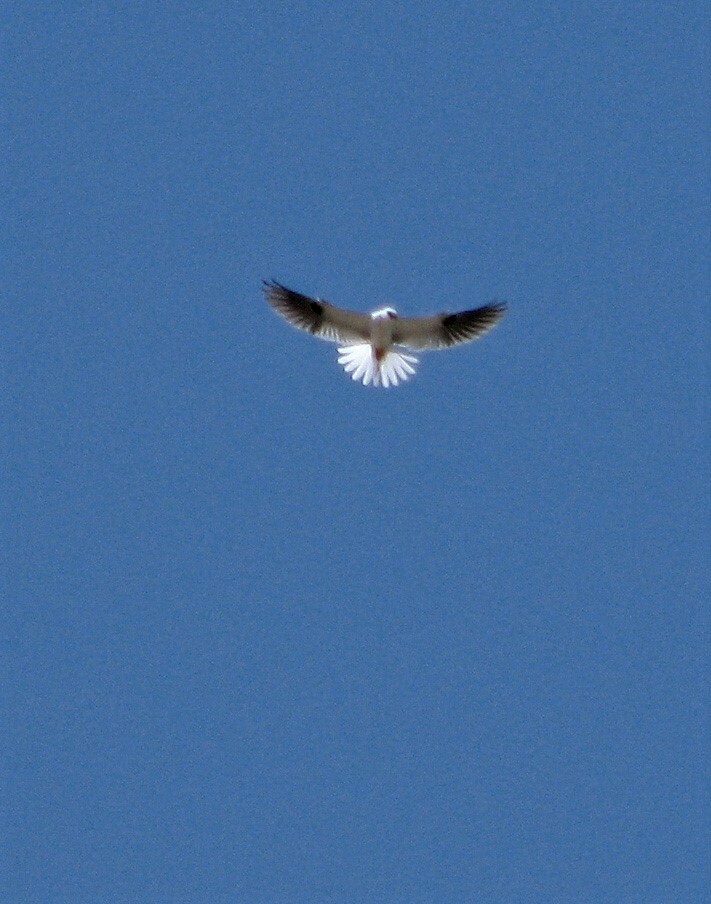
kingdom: Animalia
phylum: Chordata
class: Aves
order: Accipitriformes
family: Accipitridae
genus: Elanus
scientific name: Elanus leucurus
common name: White-tailed kite
